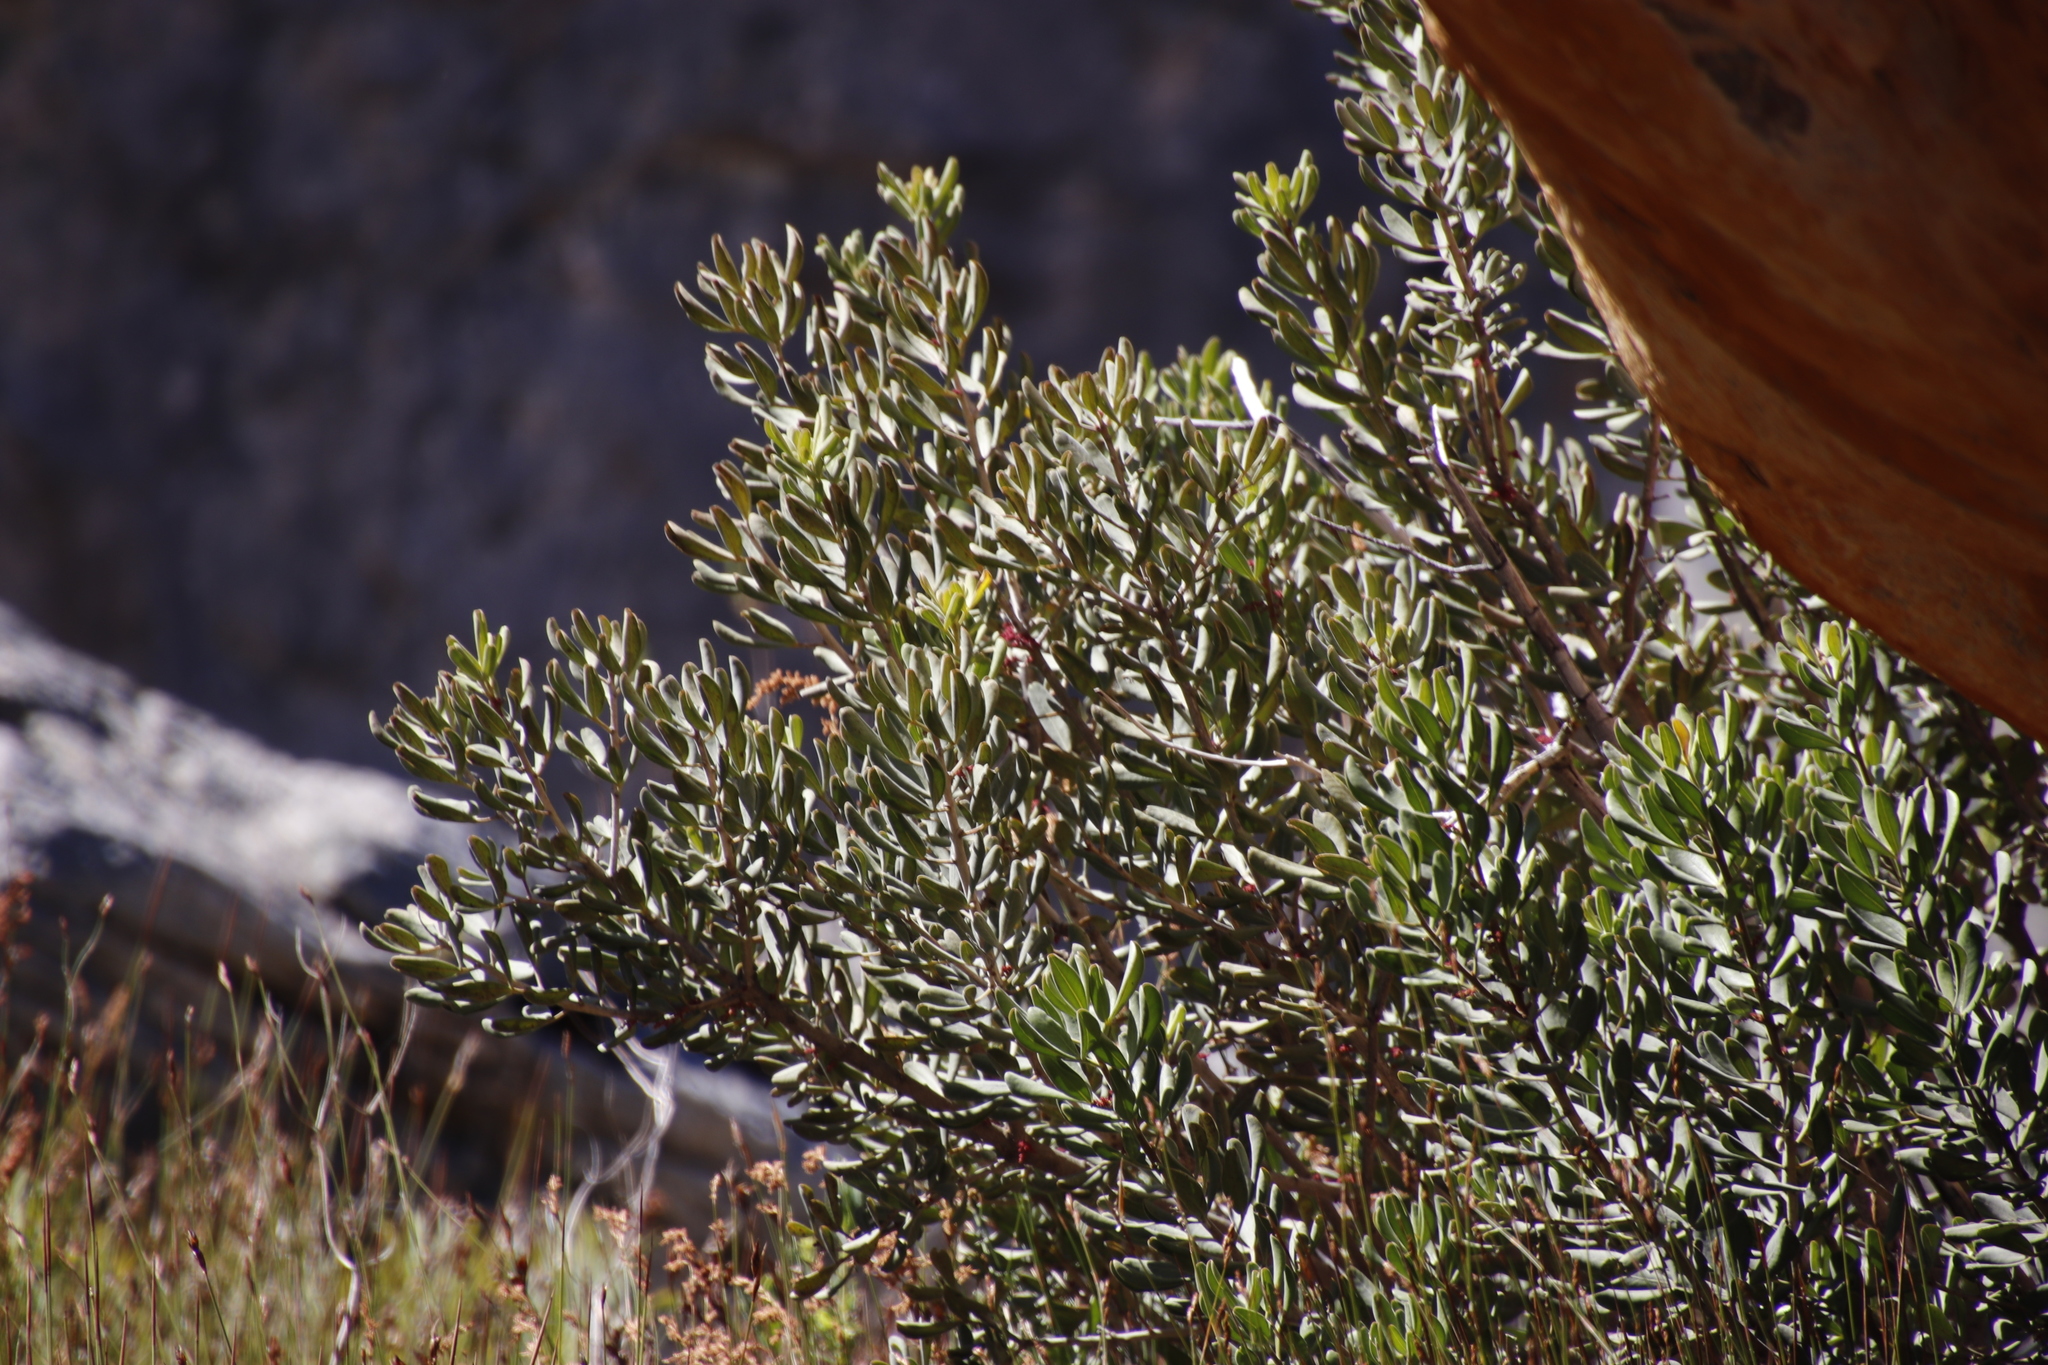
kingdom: Plantae
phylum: Tracheophyta
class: Magnoliopsida
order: Sapindales
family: Anacardiaceae
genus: Searsia
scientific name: Searsia scytophylla
